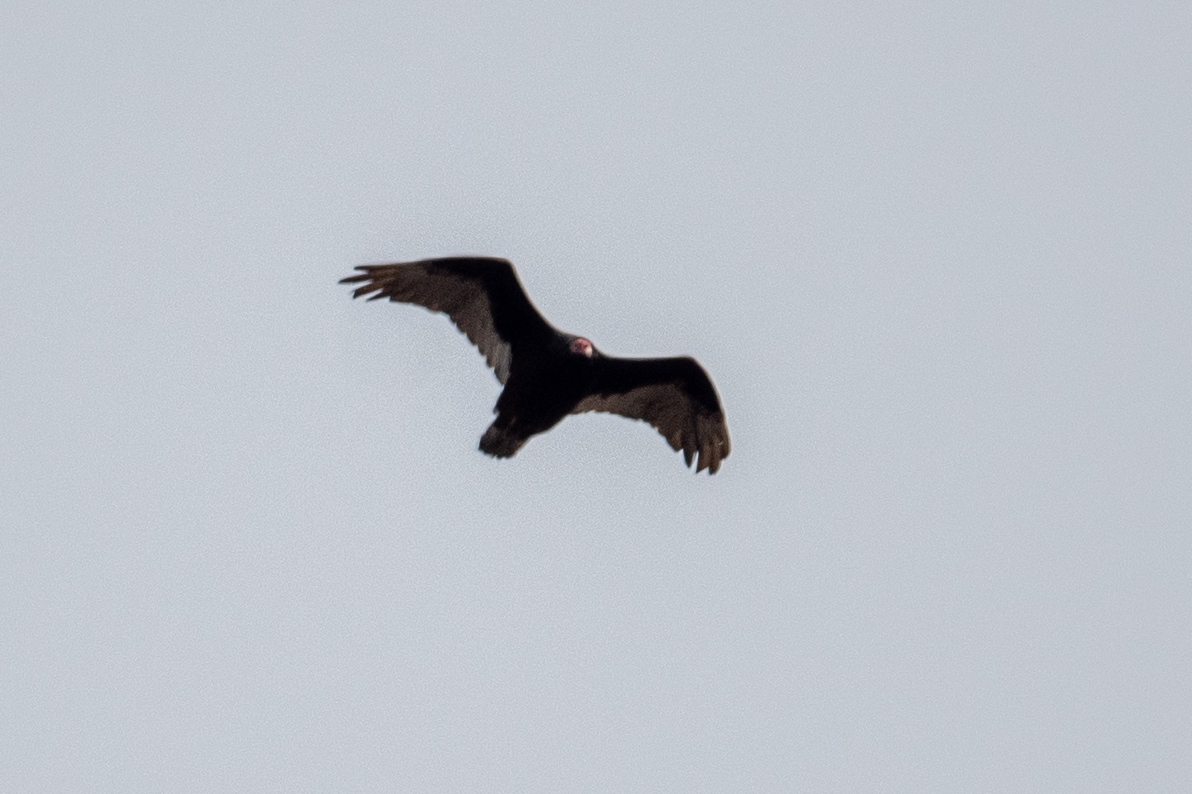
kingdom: Animalia
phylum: Chordata
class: Aves
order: Accipitriformes
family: Cathartidae
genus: Cathartes
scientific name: Cathartes aura
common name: Turkey vulture
